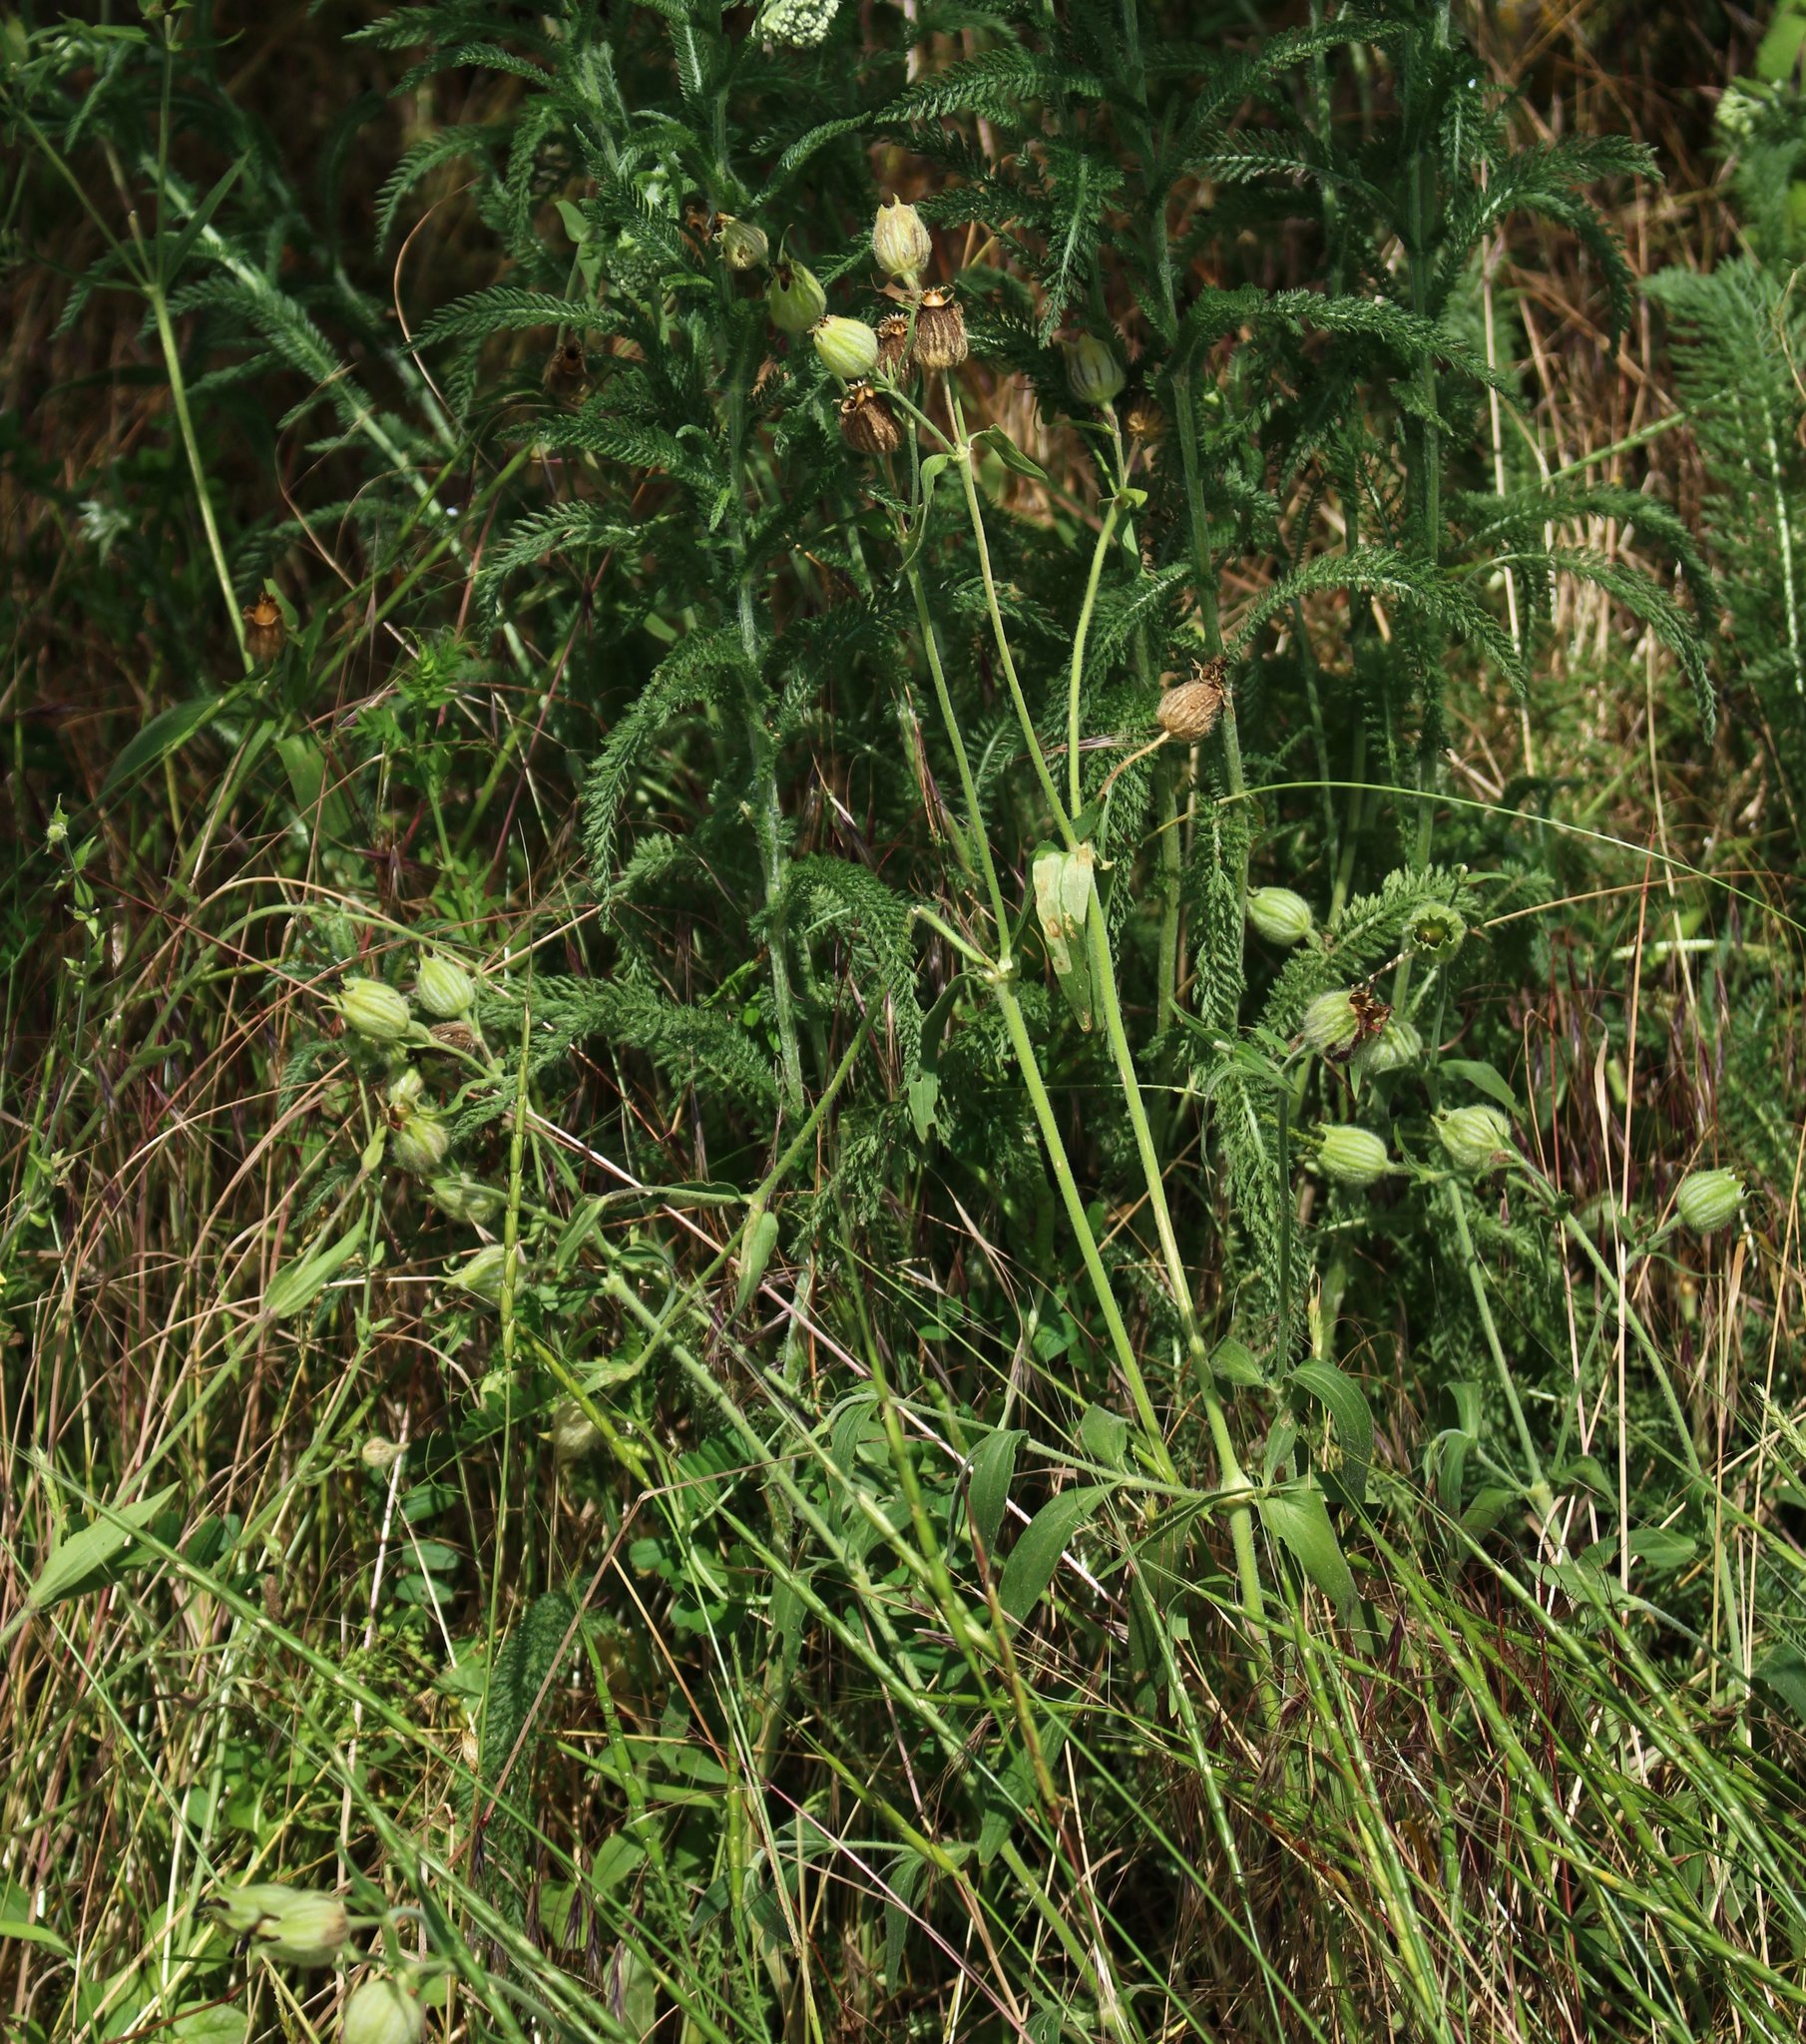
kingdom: Plantae
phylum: Tracheophyta
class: Magnoliopsida
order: Caryophyllales
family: Caryophyllaceae
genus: Silene
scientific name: Silene latifolia
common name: White campion
